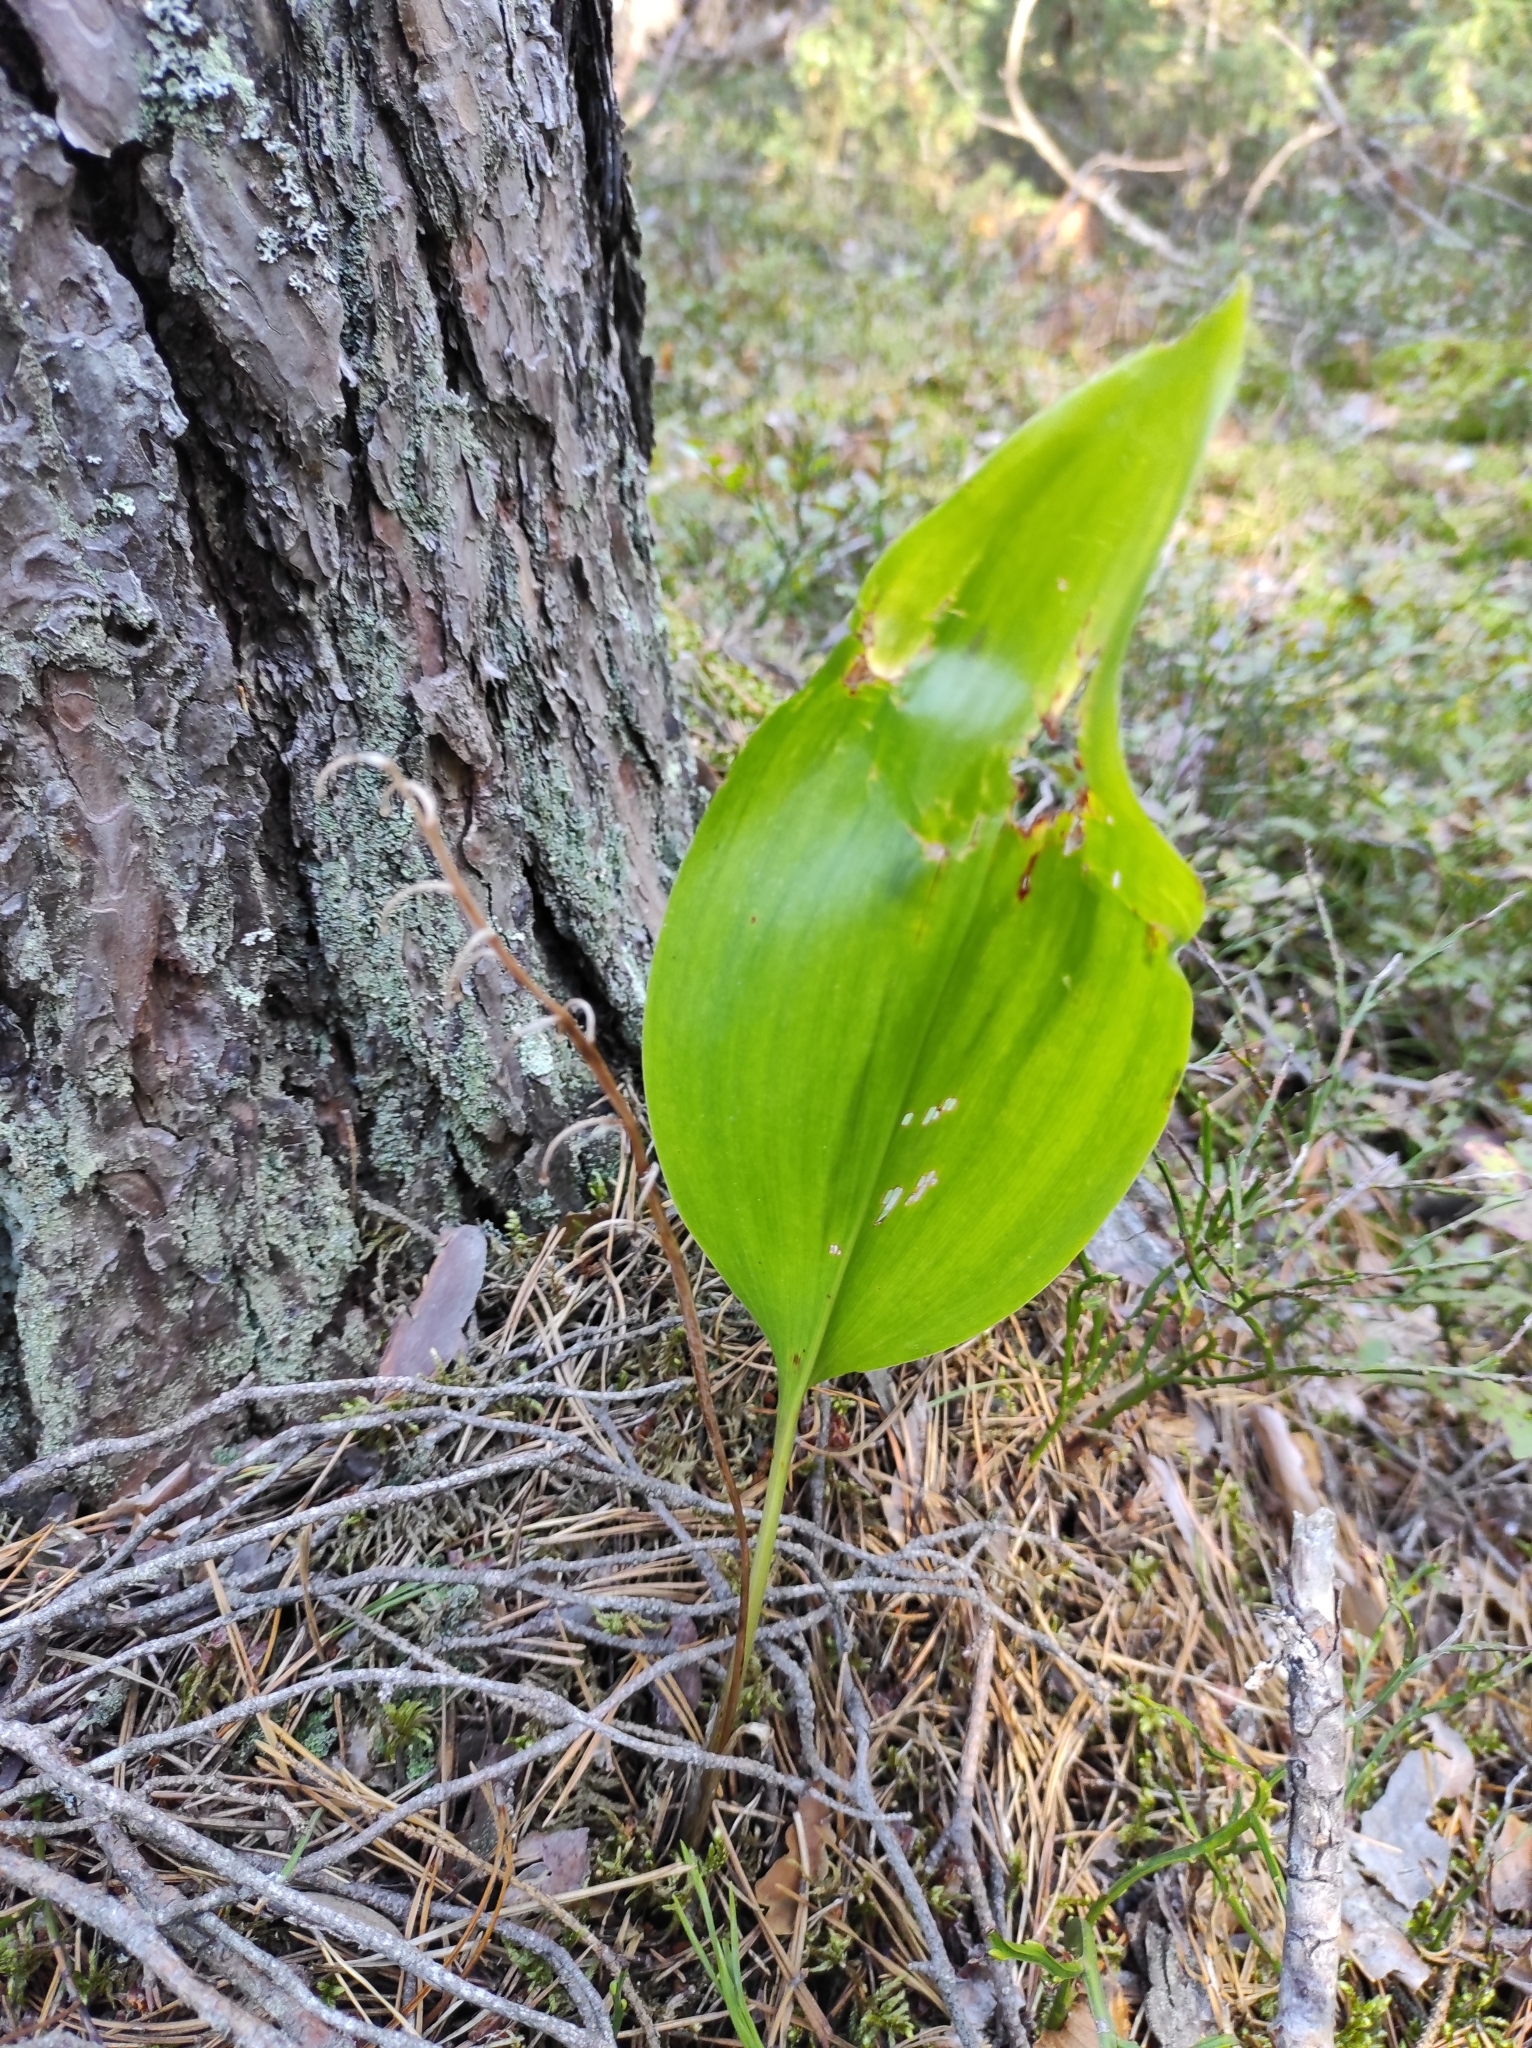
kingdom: Plantae
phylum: Tracheophyta
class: Liliopsida
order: Asparagales
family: Asparagaceae
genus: Convallaria
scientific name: Convallaria majalis
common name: Lily-of-the-valley
